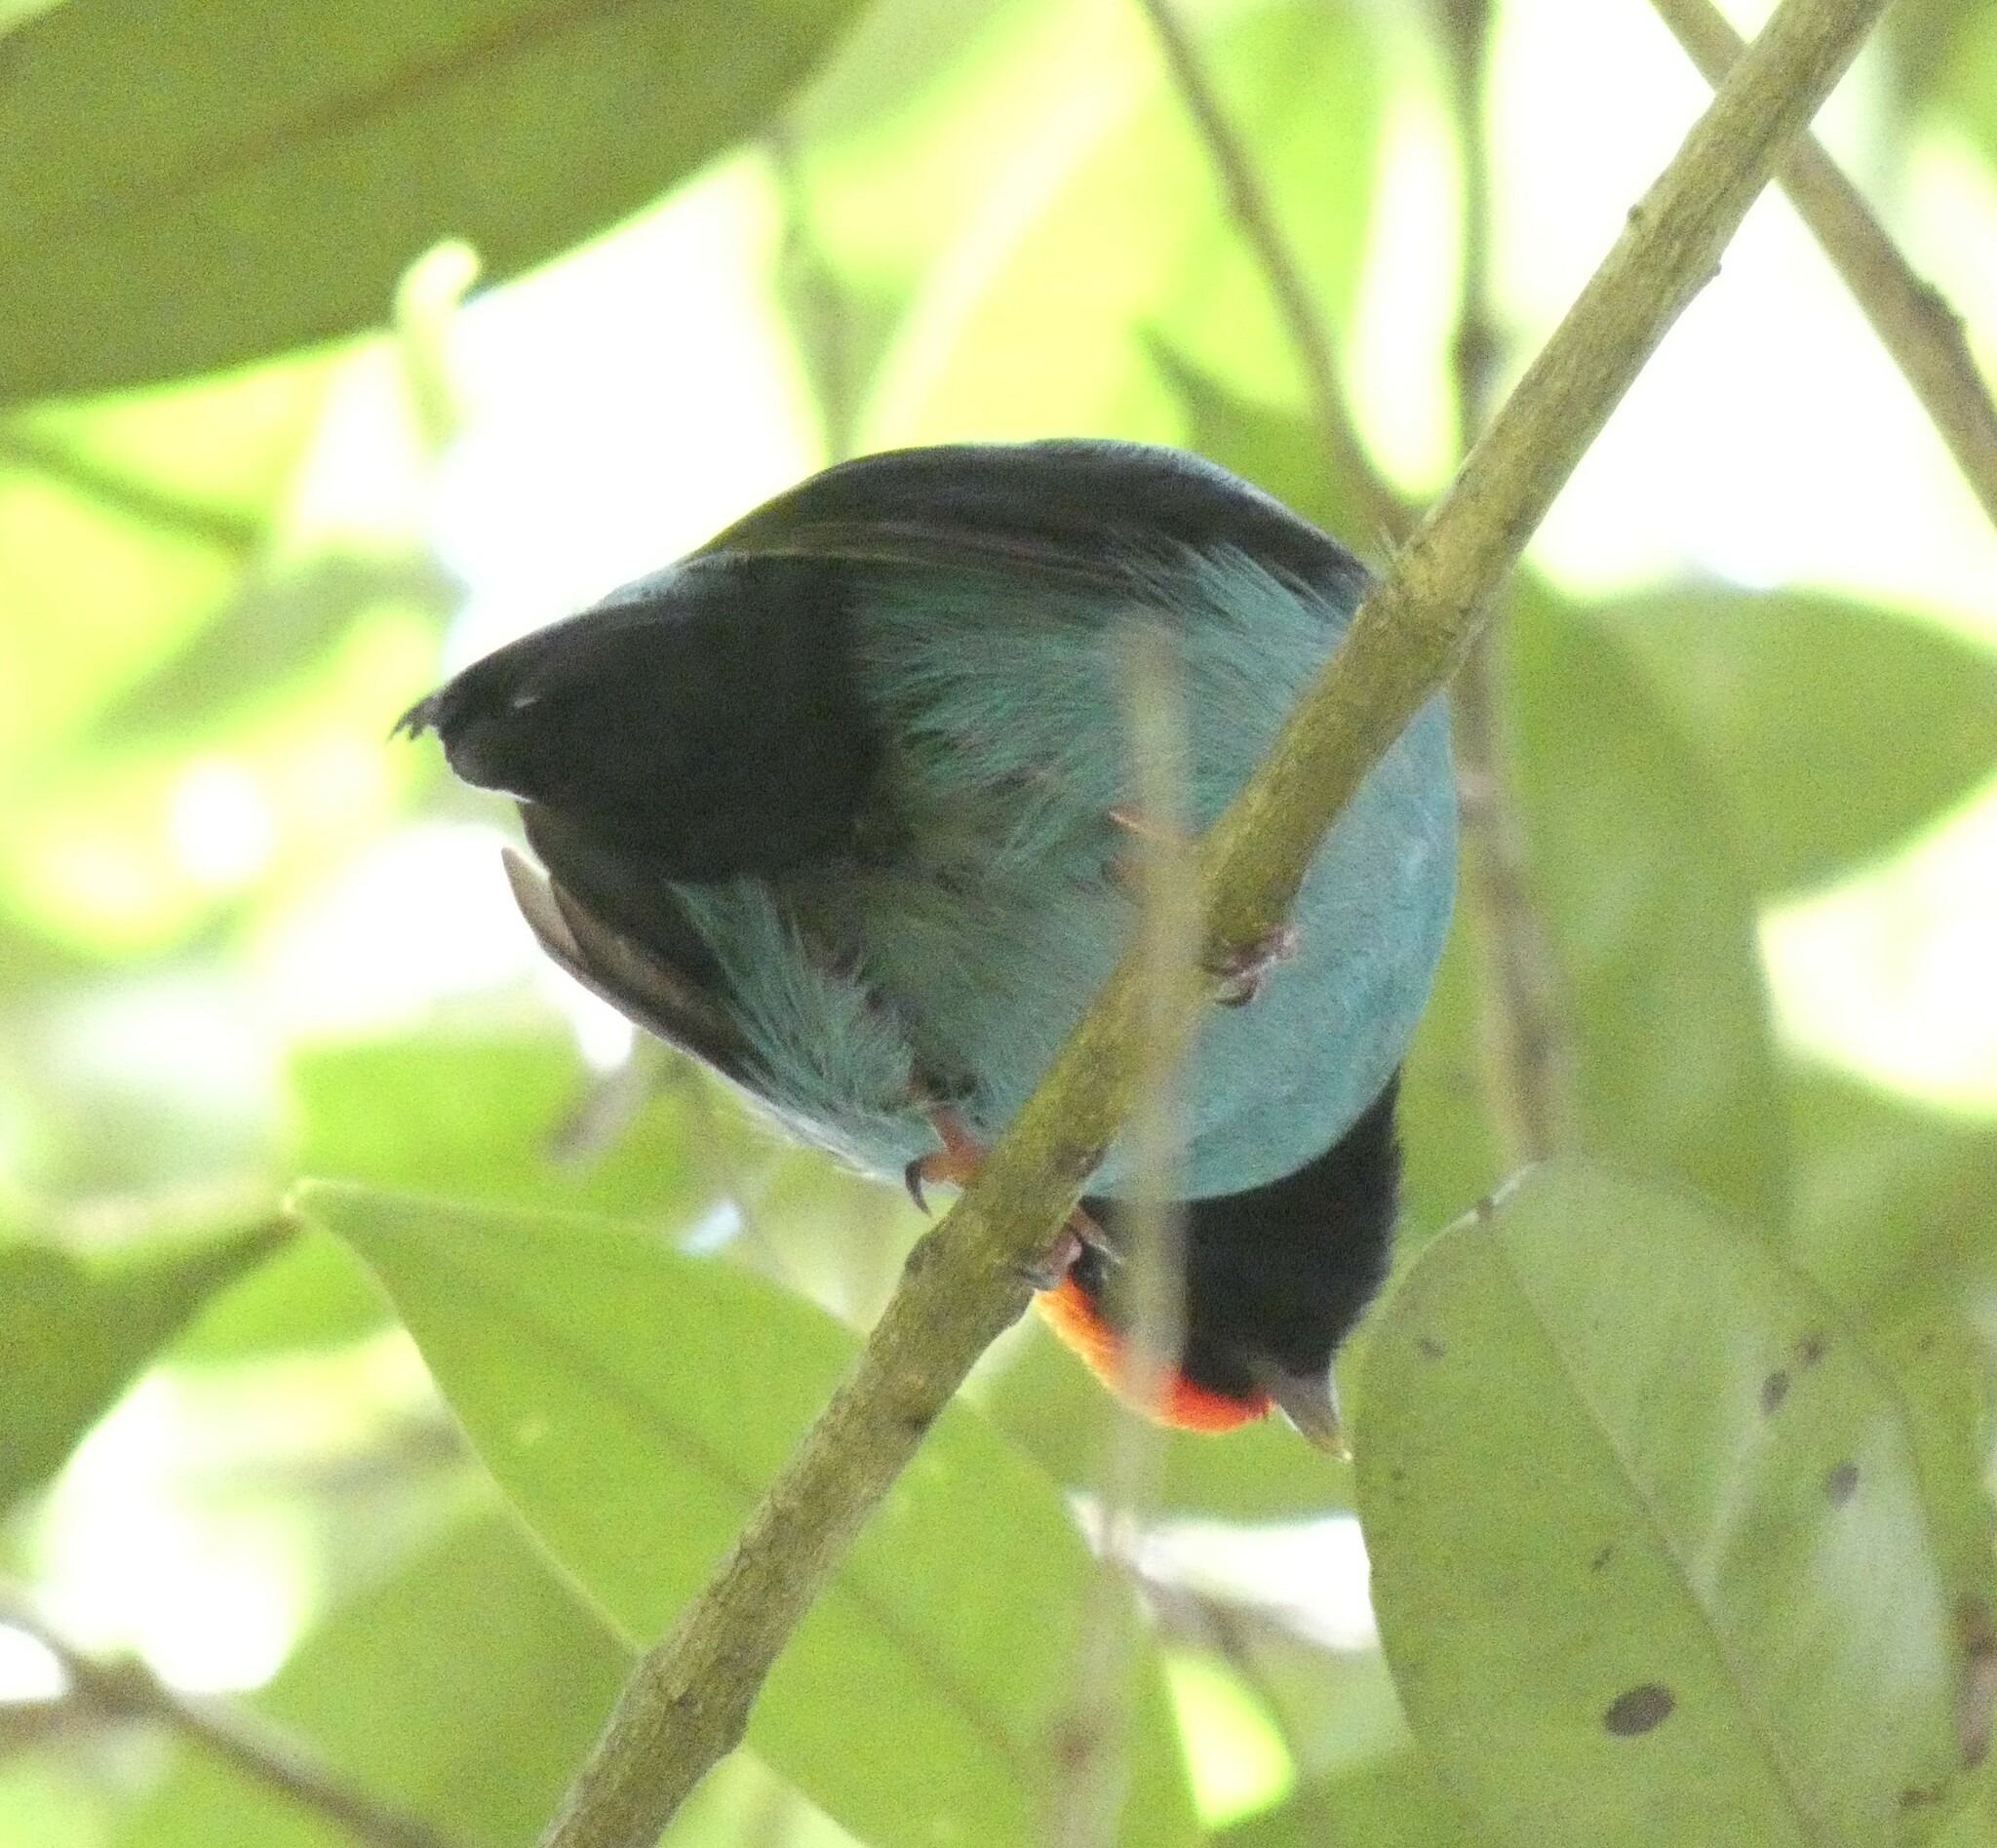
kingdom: Animalia
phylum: Chordata
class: Aves
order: Passeriformes
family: Pipridae
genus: Chiroxiphia
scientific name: Chiroxiphia caudata
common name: Blue manakin
